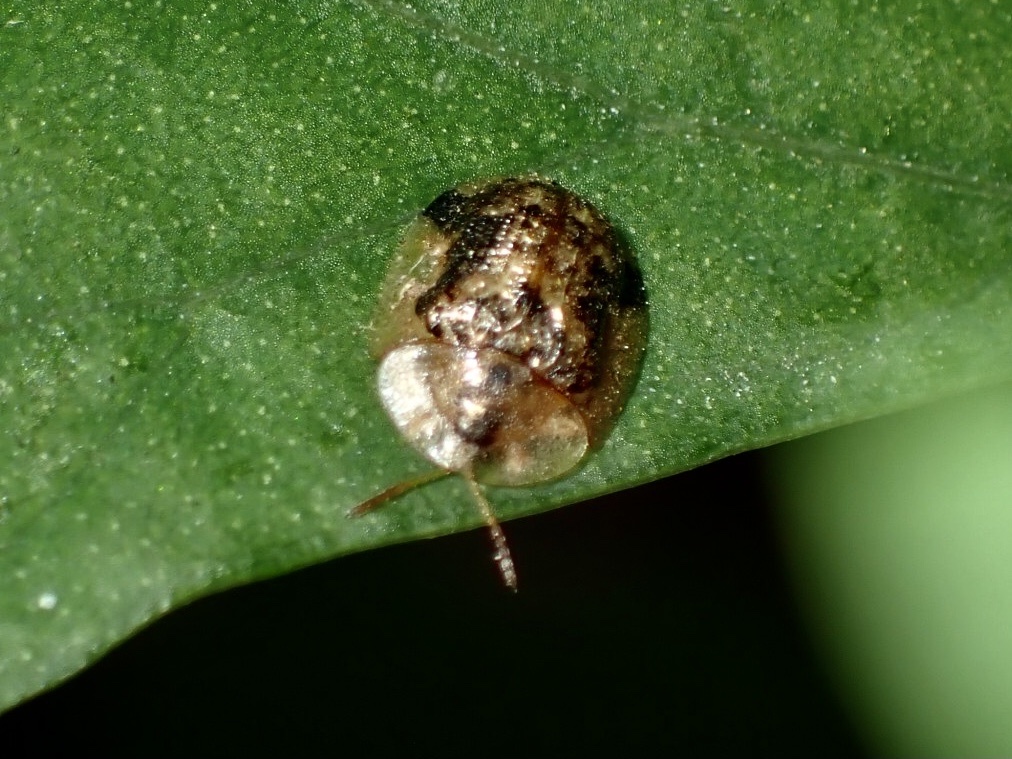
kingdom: Animalia
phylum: Arthropoda
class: Insecta
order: Coleoptera
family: Chrysomelidae
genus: Cassida
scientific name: Cassida piperata
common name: Small tortoise beetle
